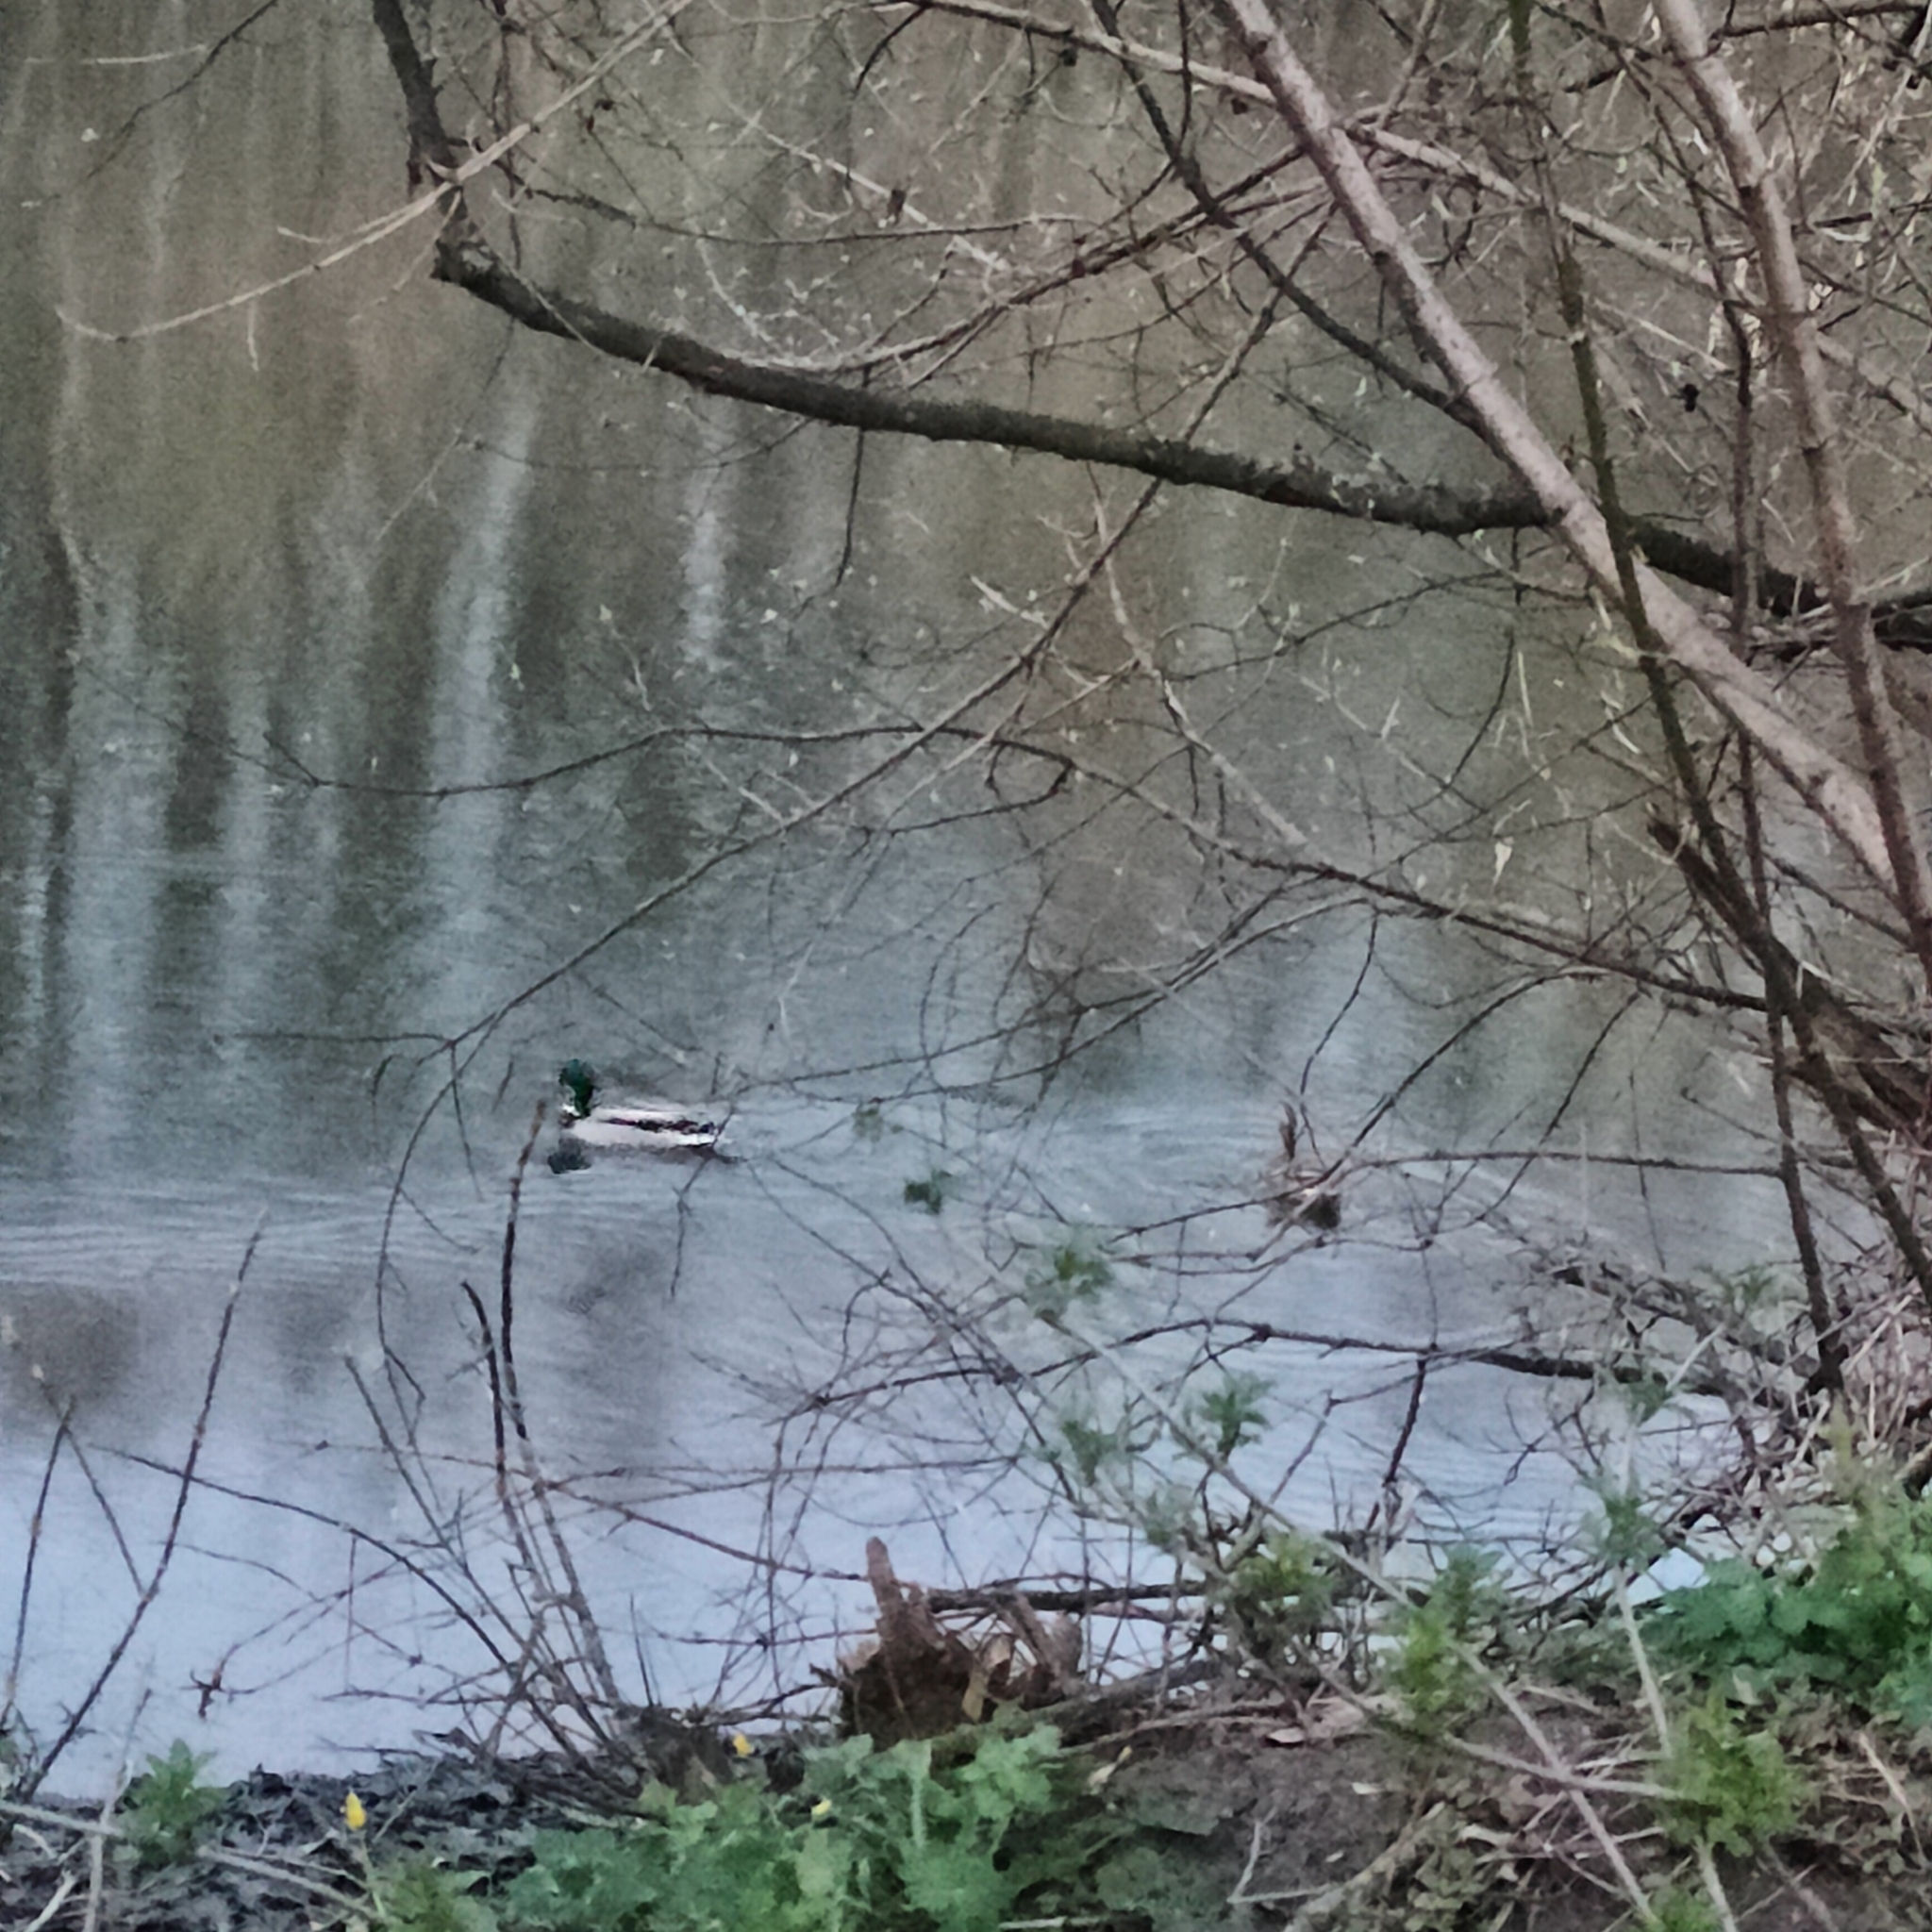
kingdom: Animalia
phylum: Chordata
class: Aves
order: Anseriformes
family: Anatidae
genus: Anas
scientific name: Anas platyrhynchos
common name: Mallard
